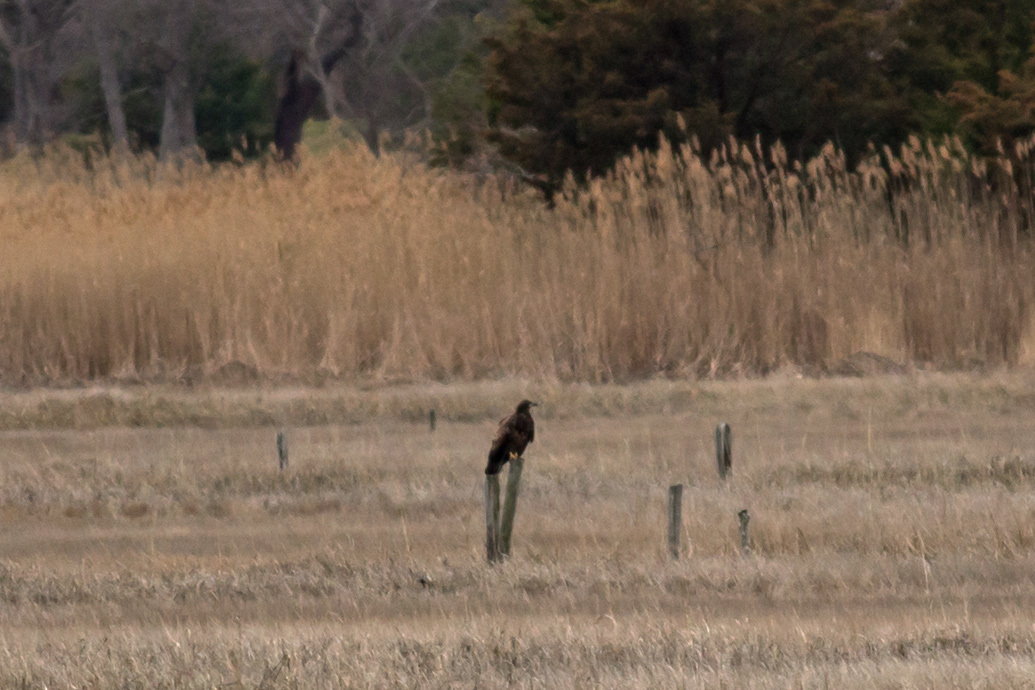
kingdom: Animalia
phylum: Chordata
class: Aves
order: Accipitriformes
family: Accipitridae
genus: Haliaeetus
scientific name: Haliaeetus leucocephalus
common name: Bald eagle
